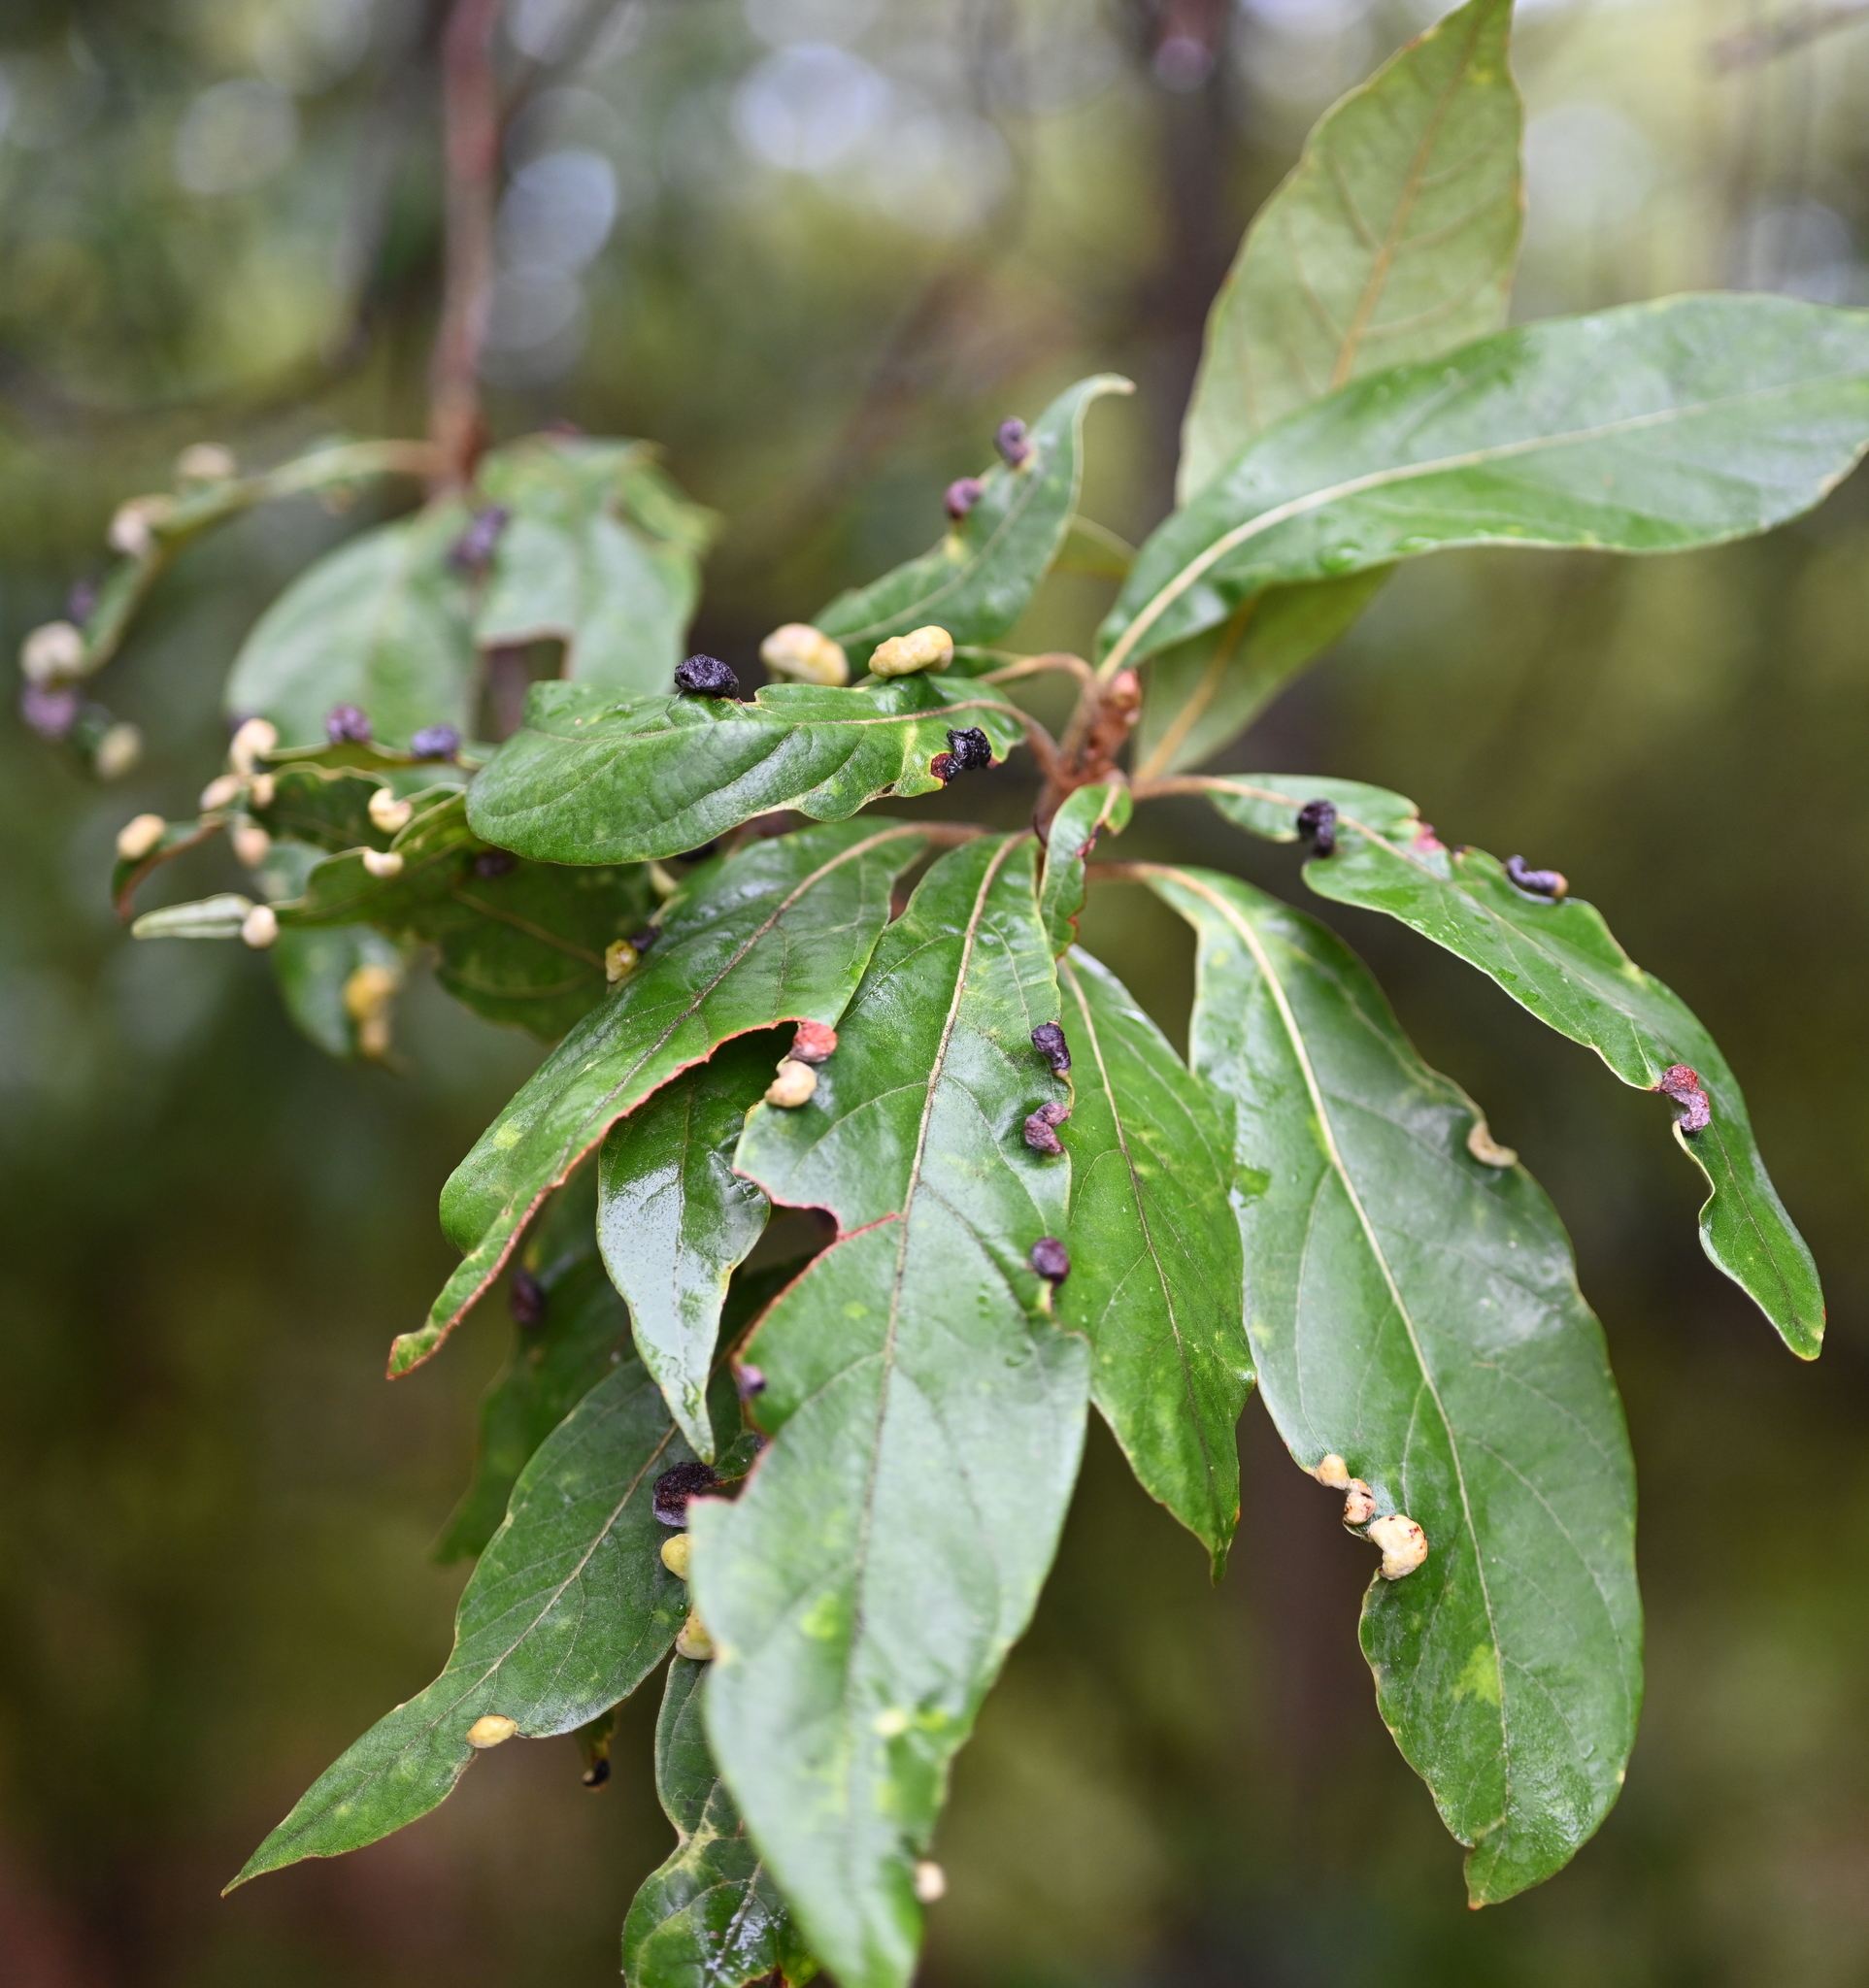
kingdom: Animalia
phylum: Arthropoda
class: Insecta
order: Hemiptera
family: Triozidae
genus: Trioza
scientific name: Trioza magnoliae
